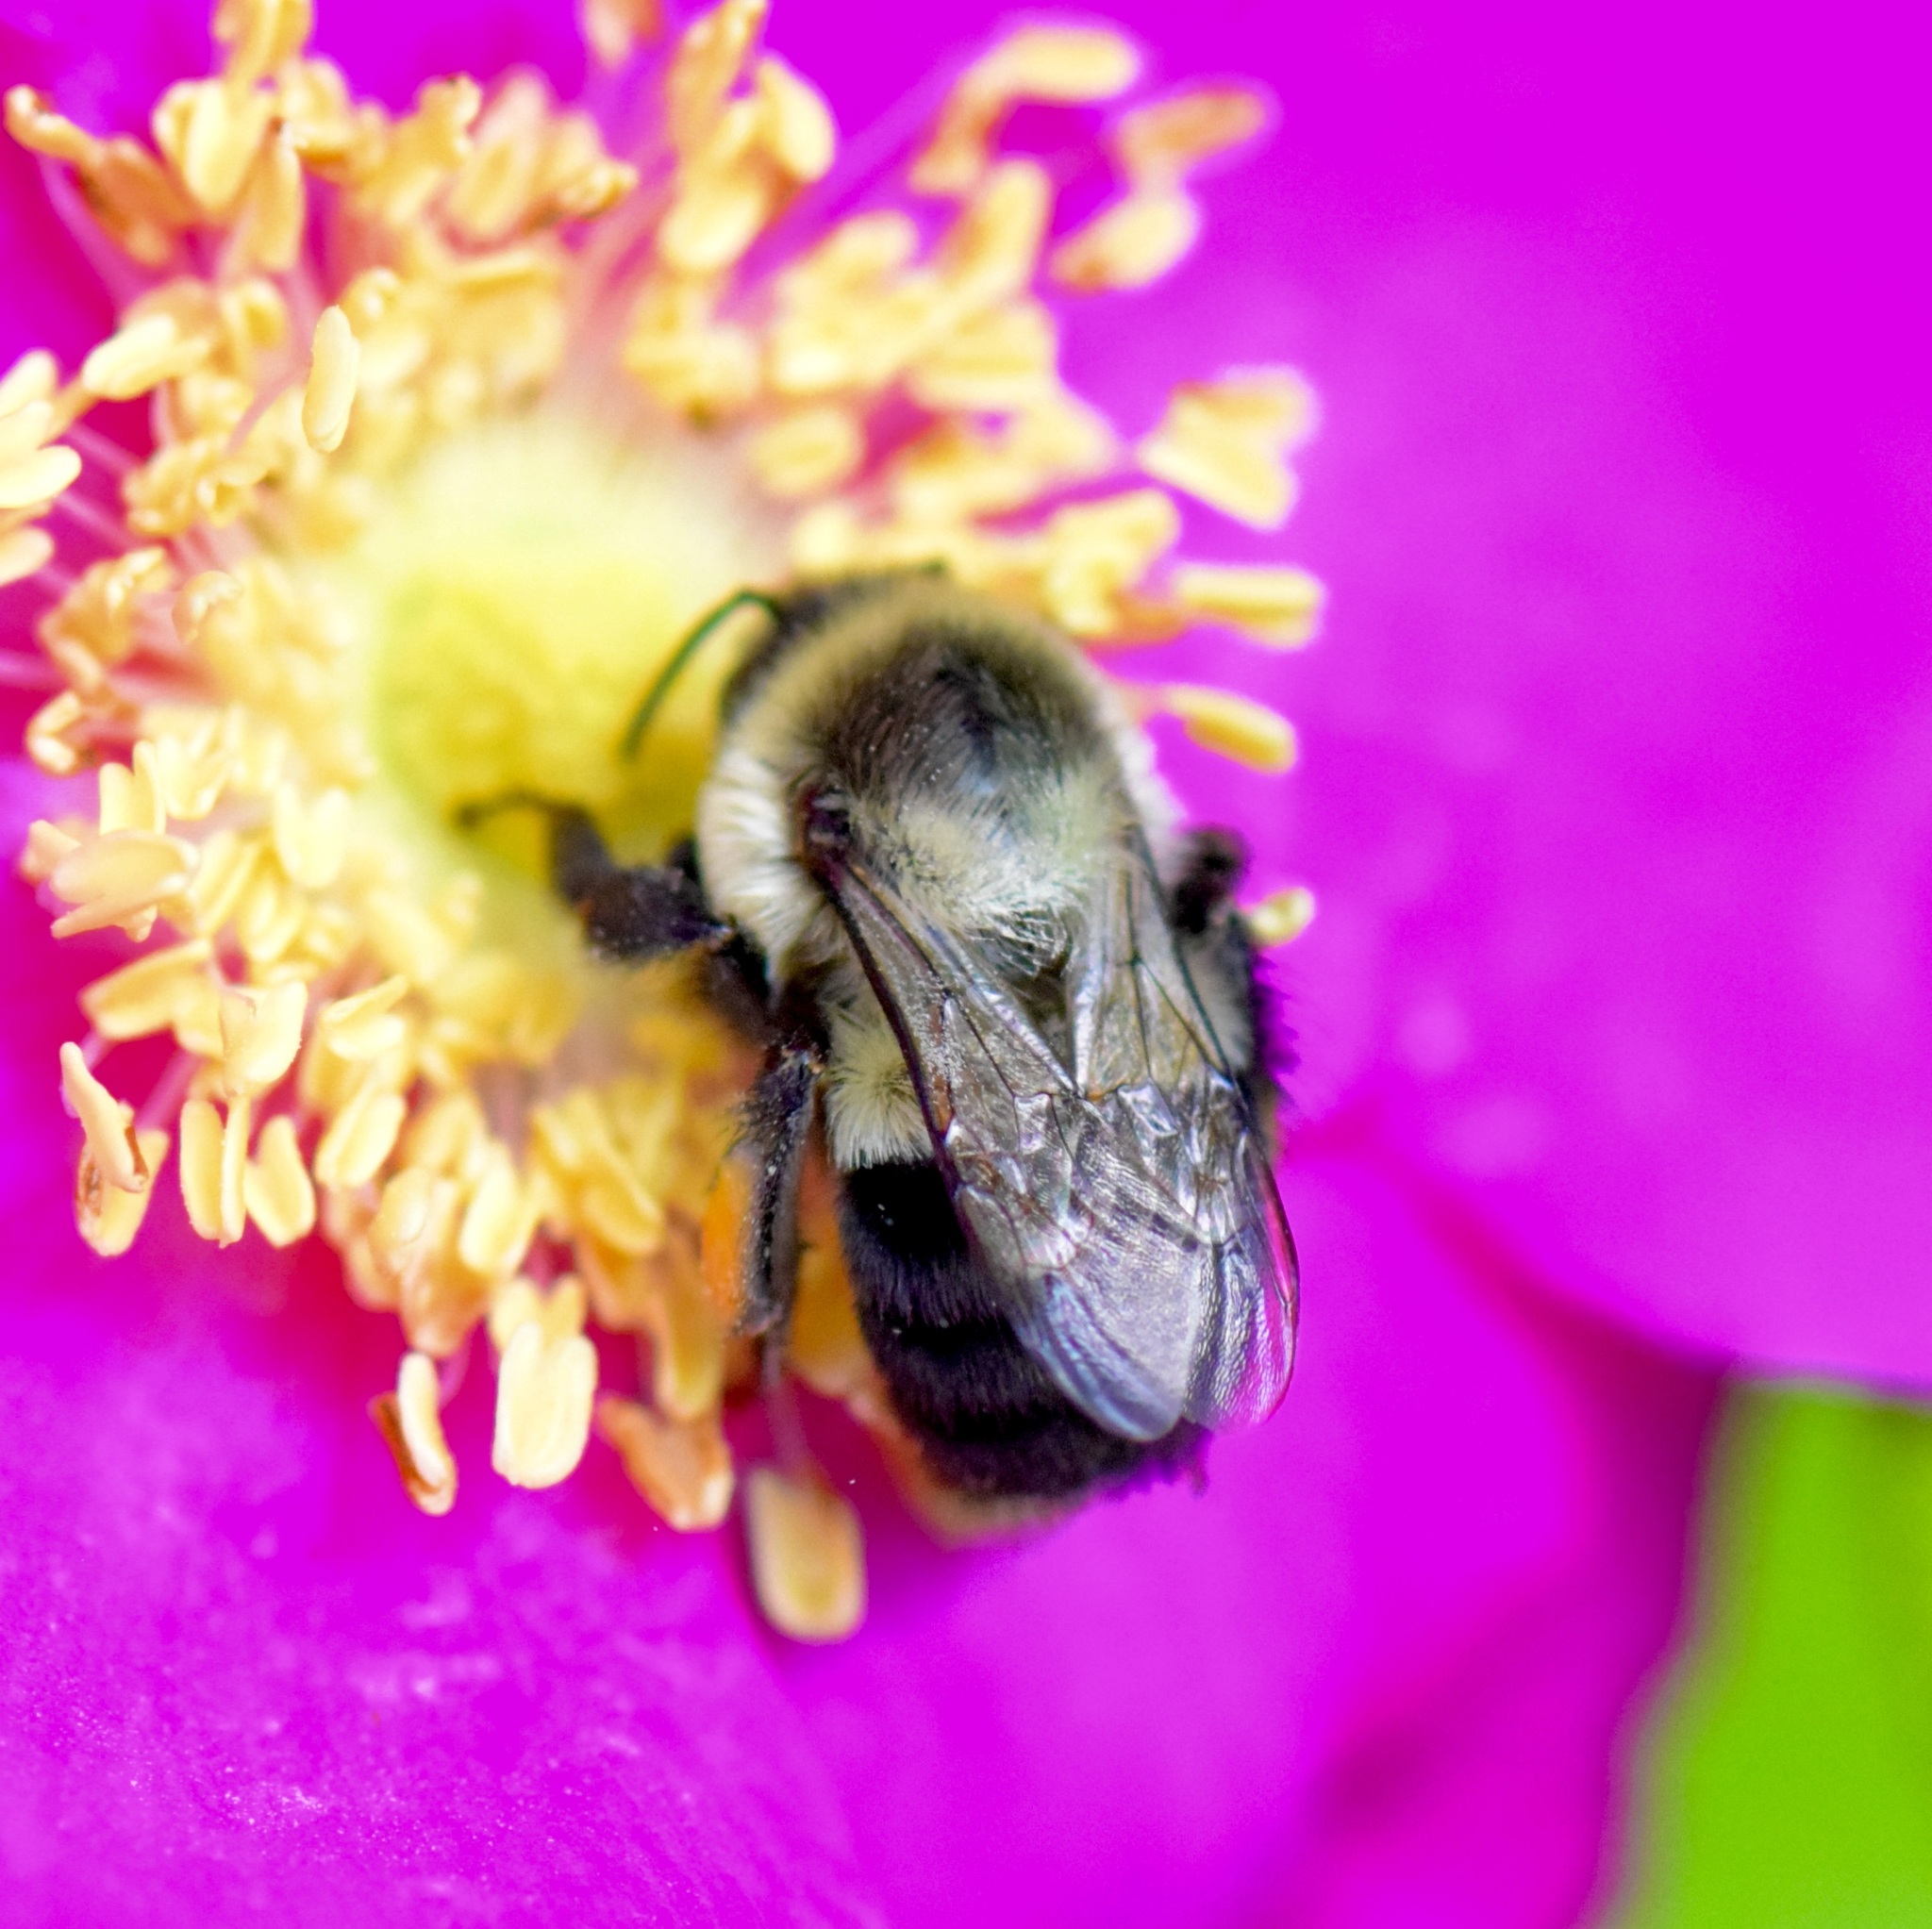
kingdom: Animalia
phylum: Arthropoda
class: Insecta
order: Hymenoptera
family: Apidae
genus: Bombus
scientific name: Bombus impatiens
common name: Common eastern bumble bee
